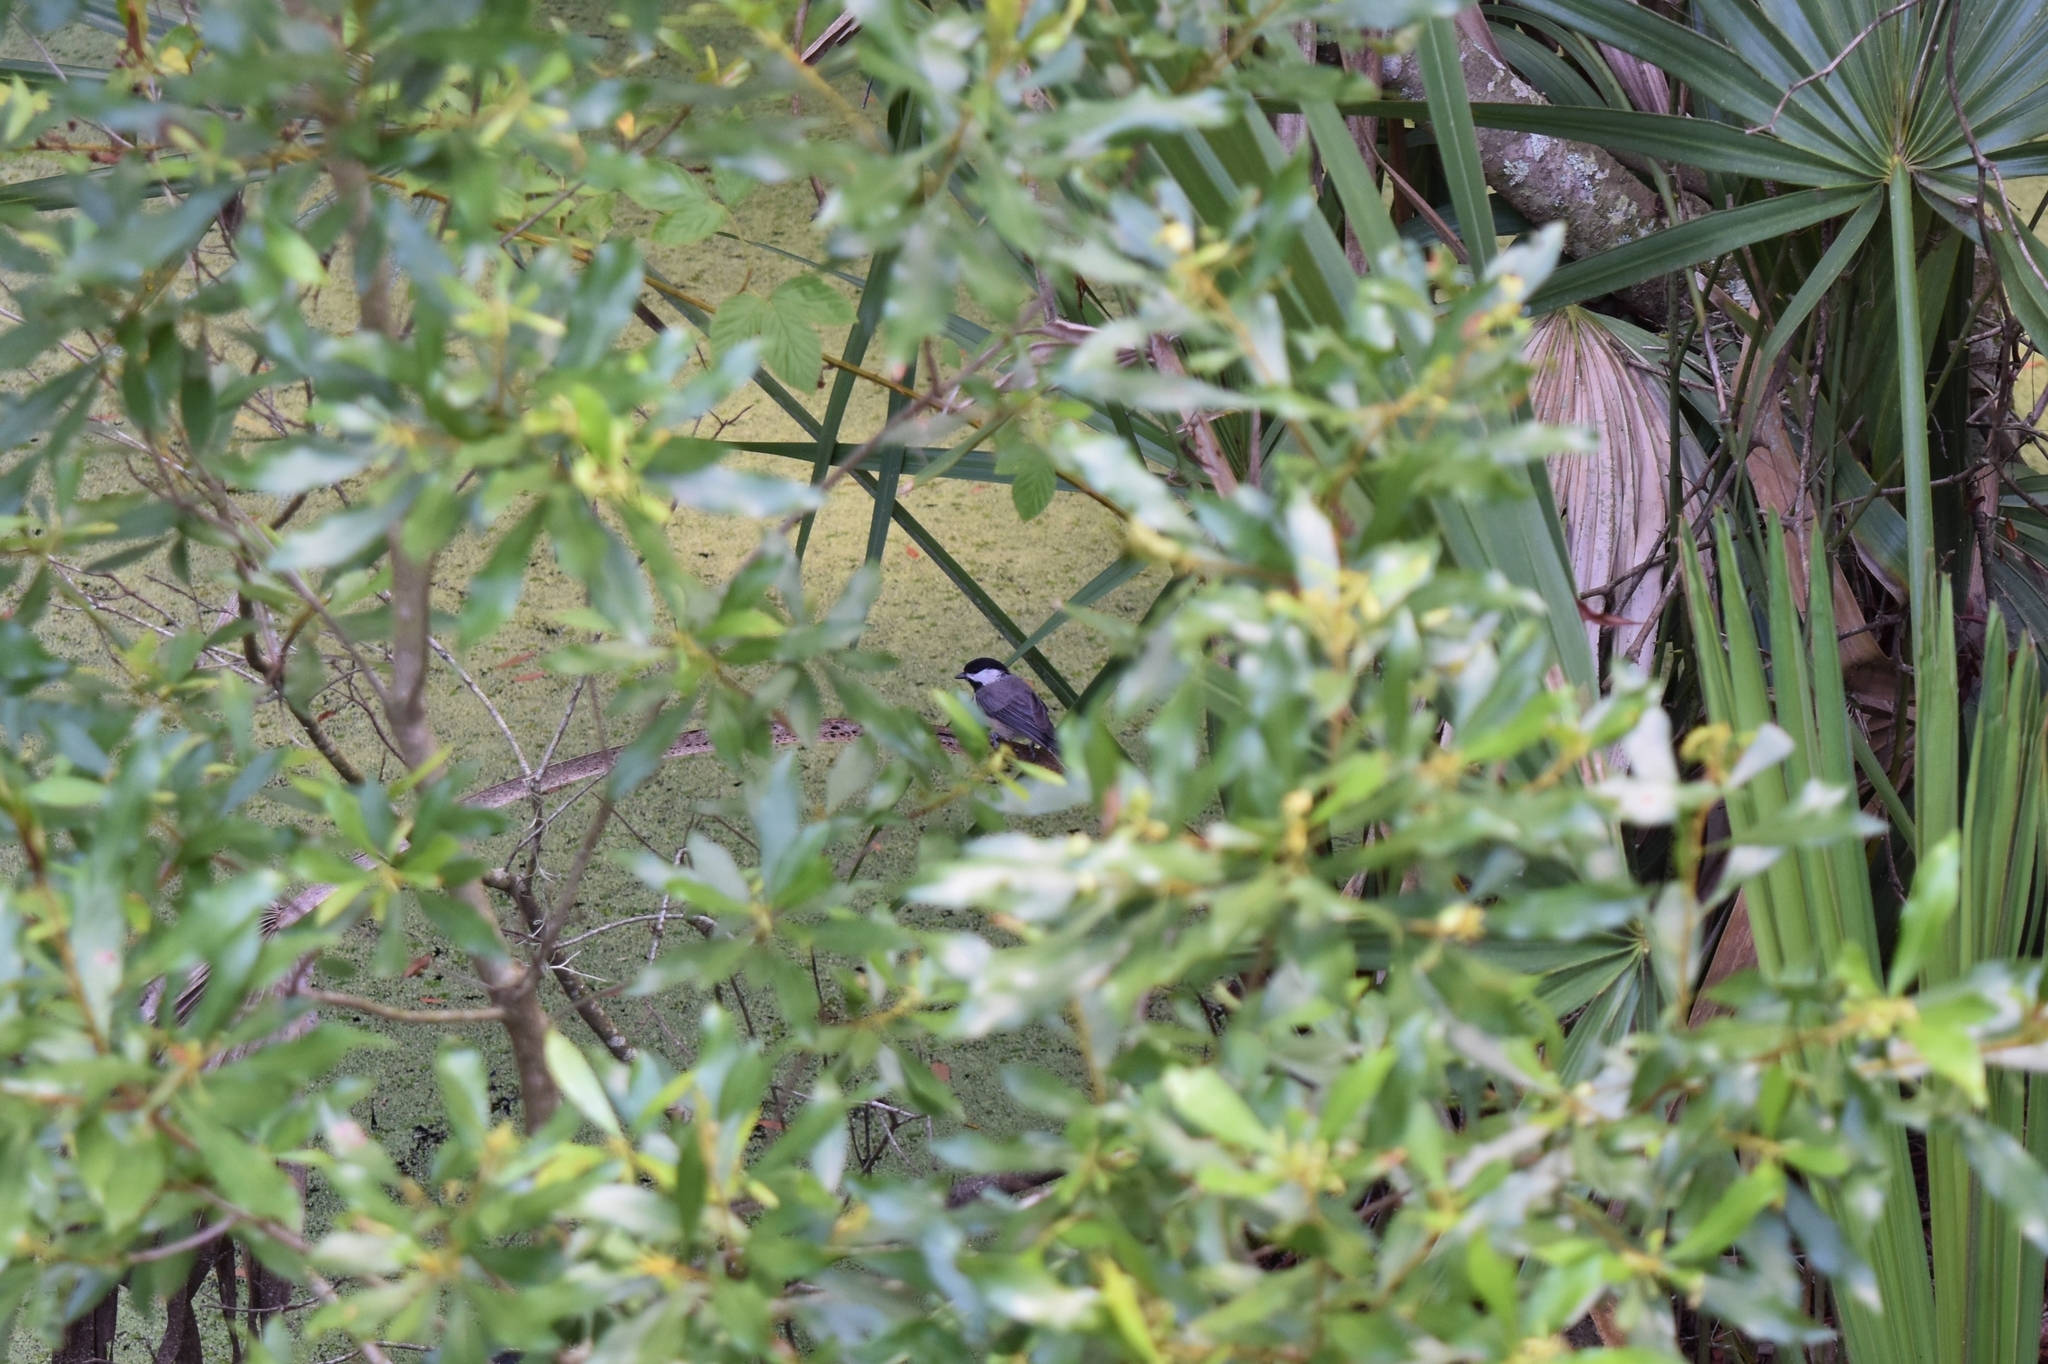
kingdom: Animalia
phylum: Chordata
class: Aves
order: Passeriformes
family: Paridae
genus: Poecile
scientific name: Poecile carolinensis
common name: Carolina chickadee
